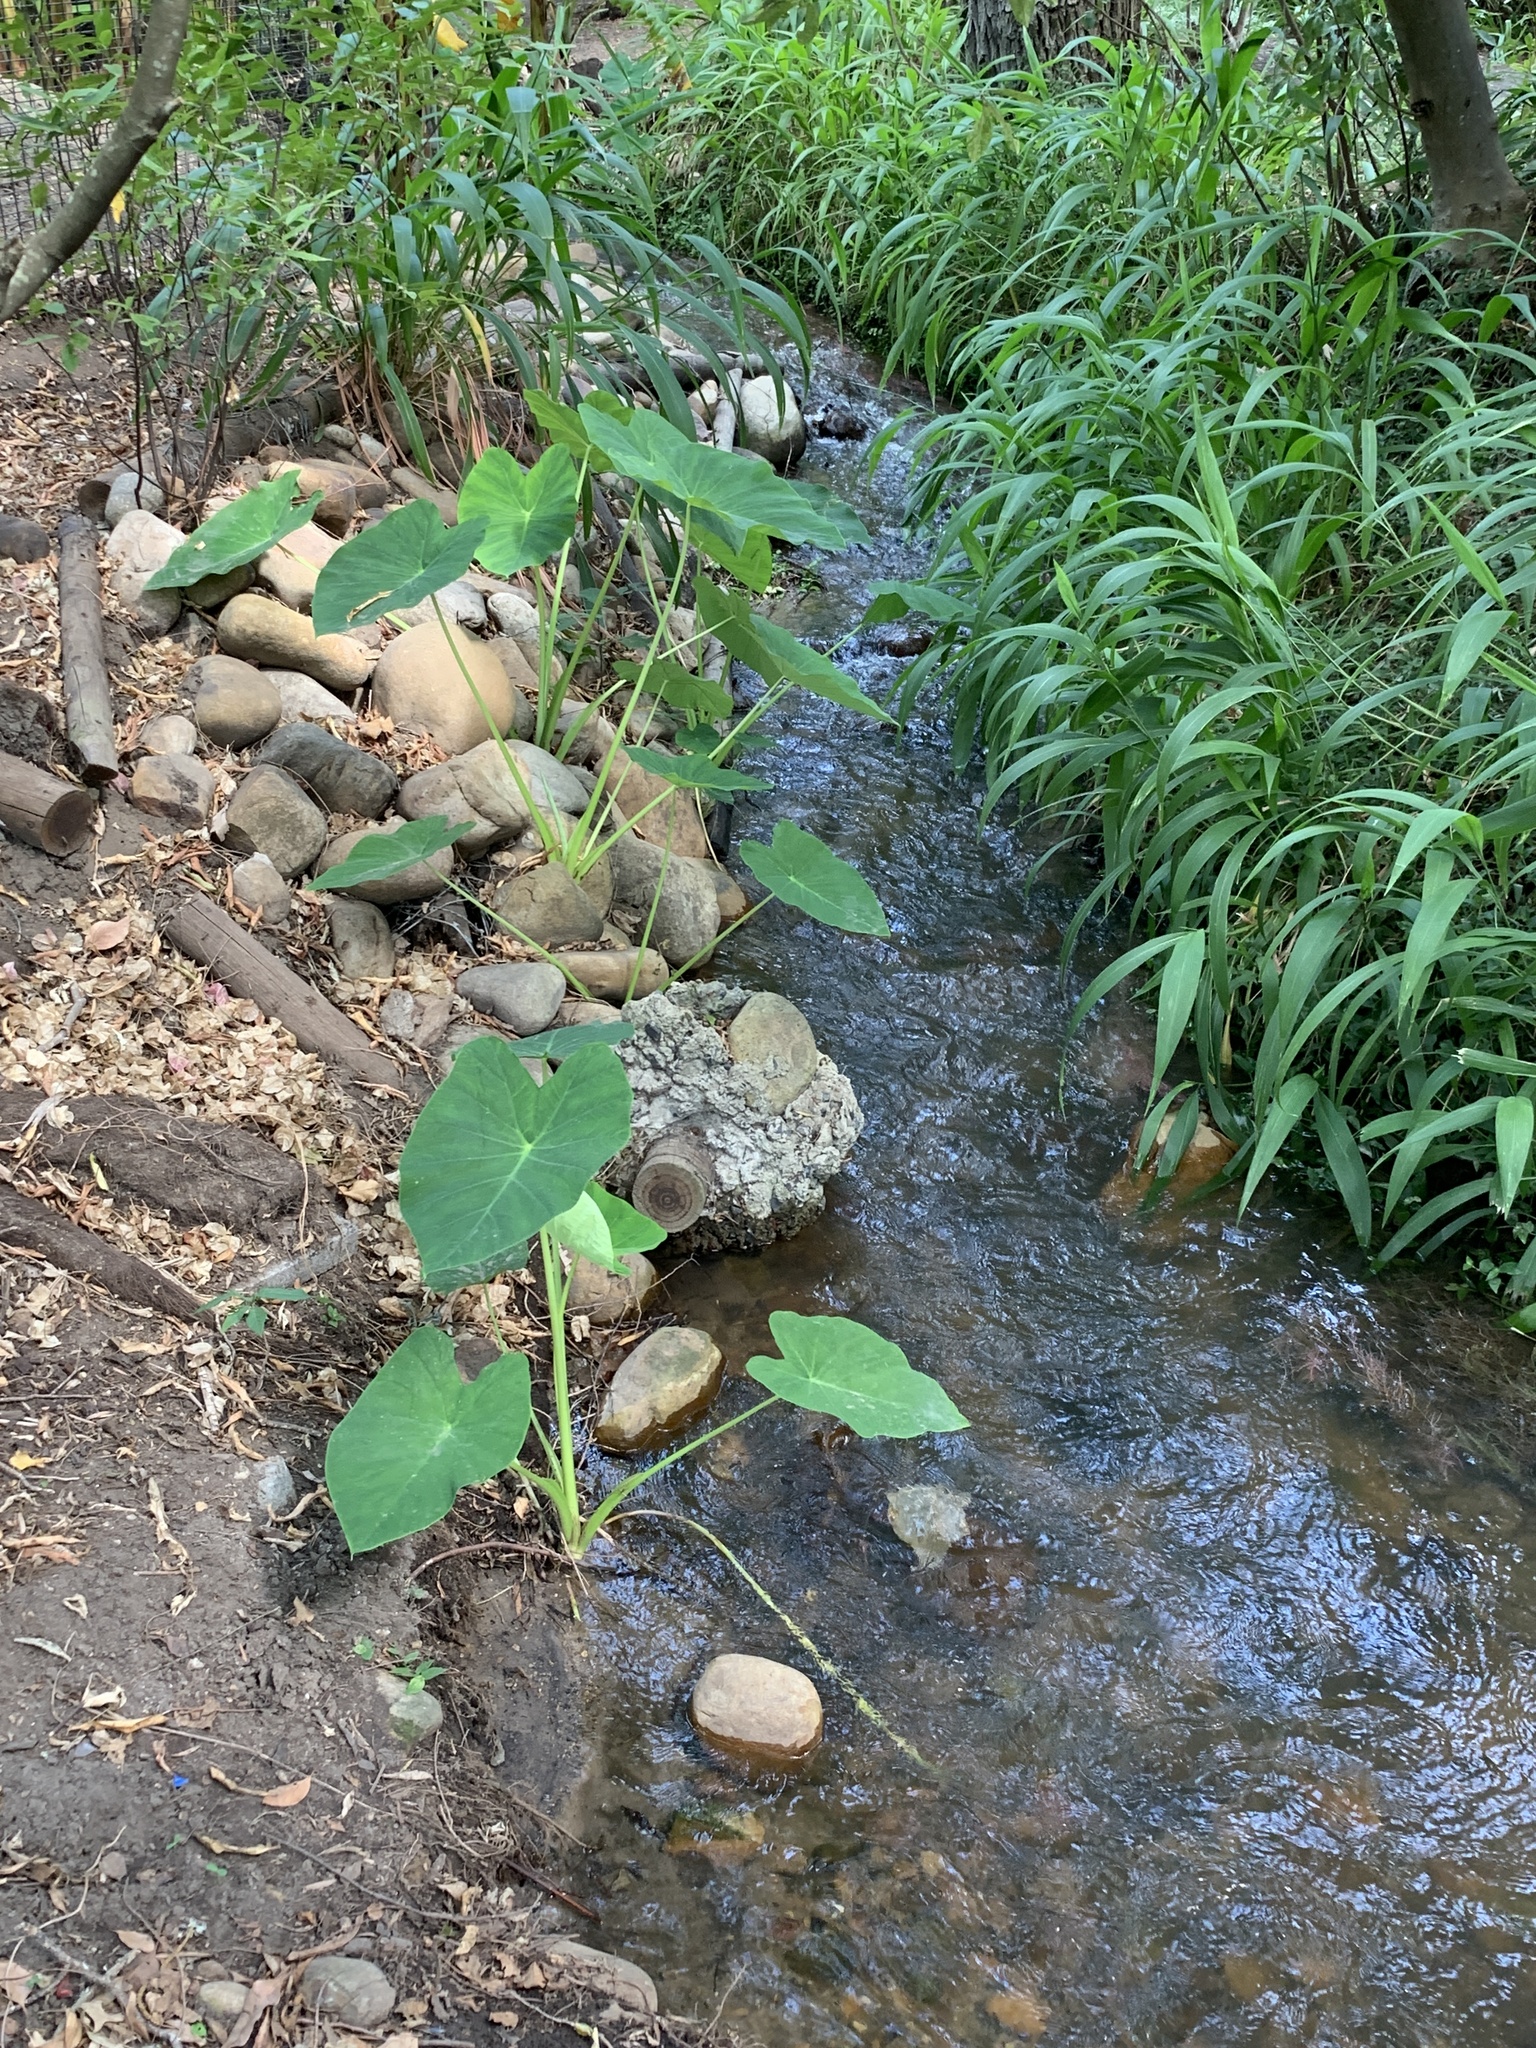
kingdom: Plantae
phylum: Tracheophyta
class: Liliopsida
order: Alismatales
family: Araceae
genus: Colocasia
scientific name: Colocasia esculenta
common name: Taro
